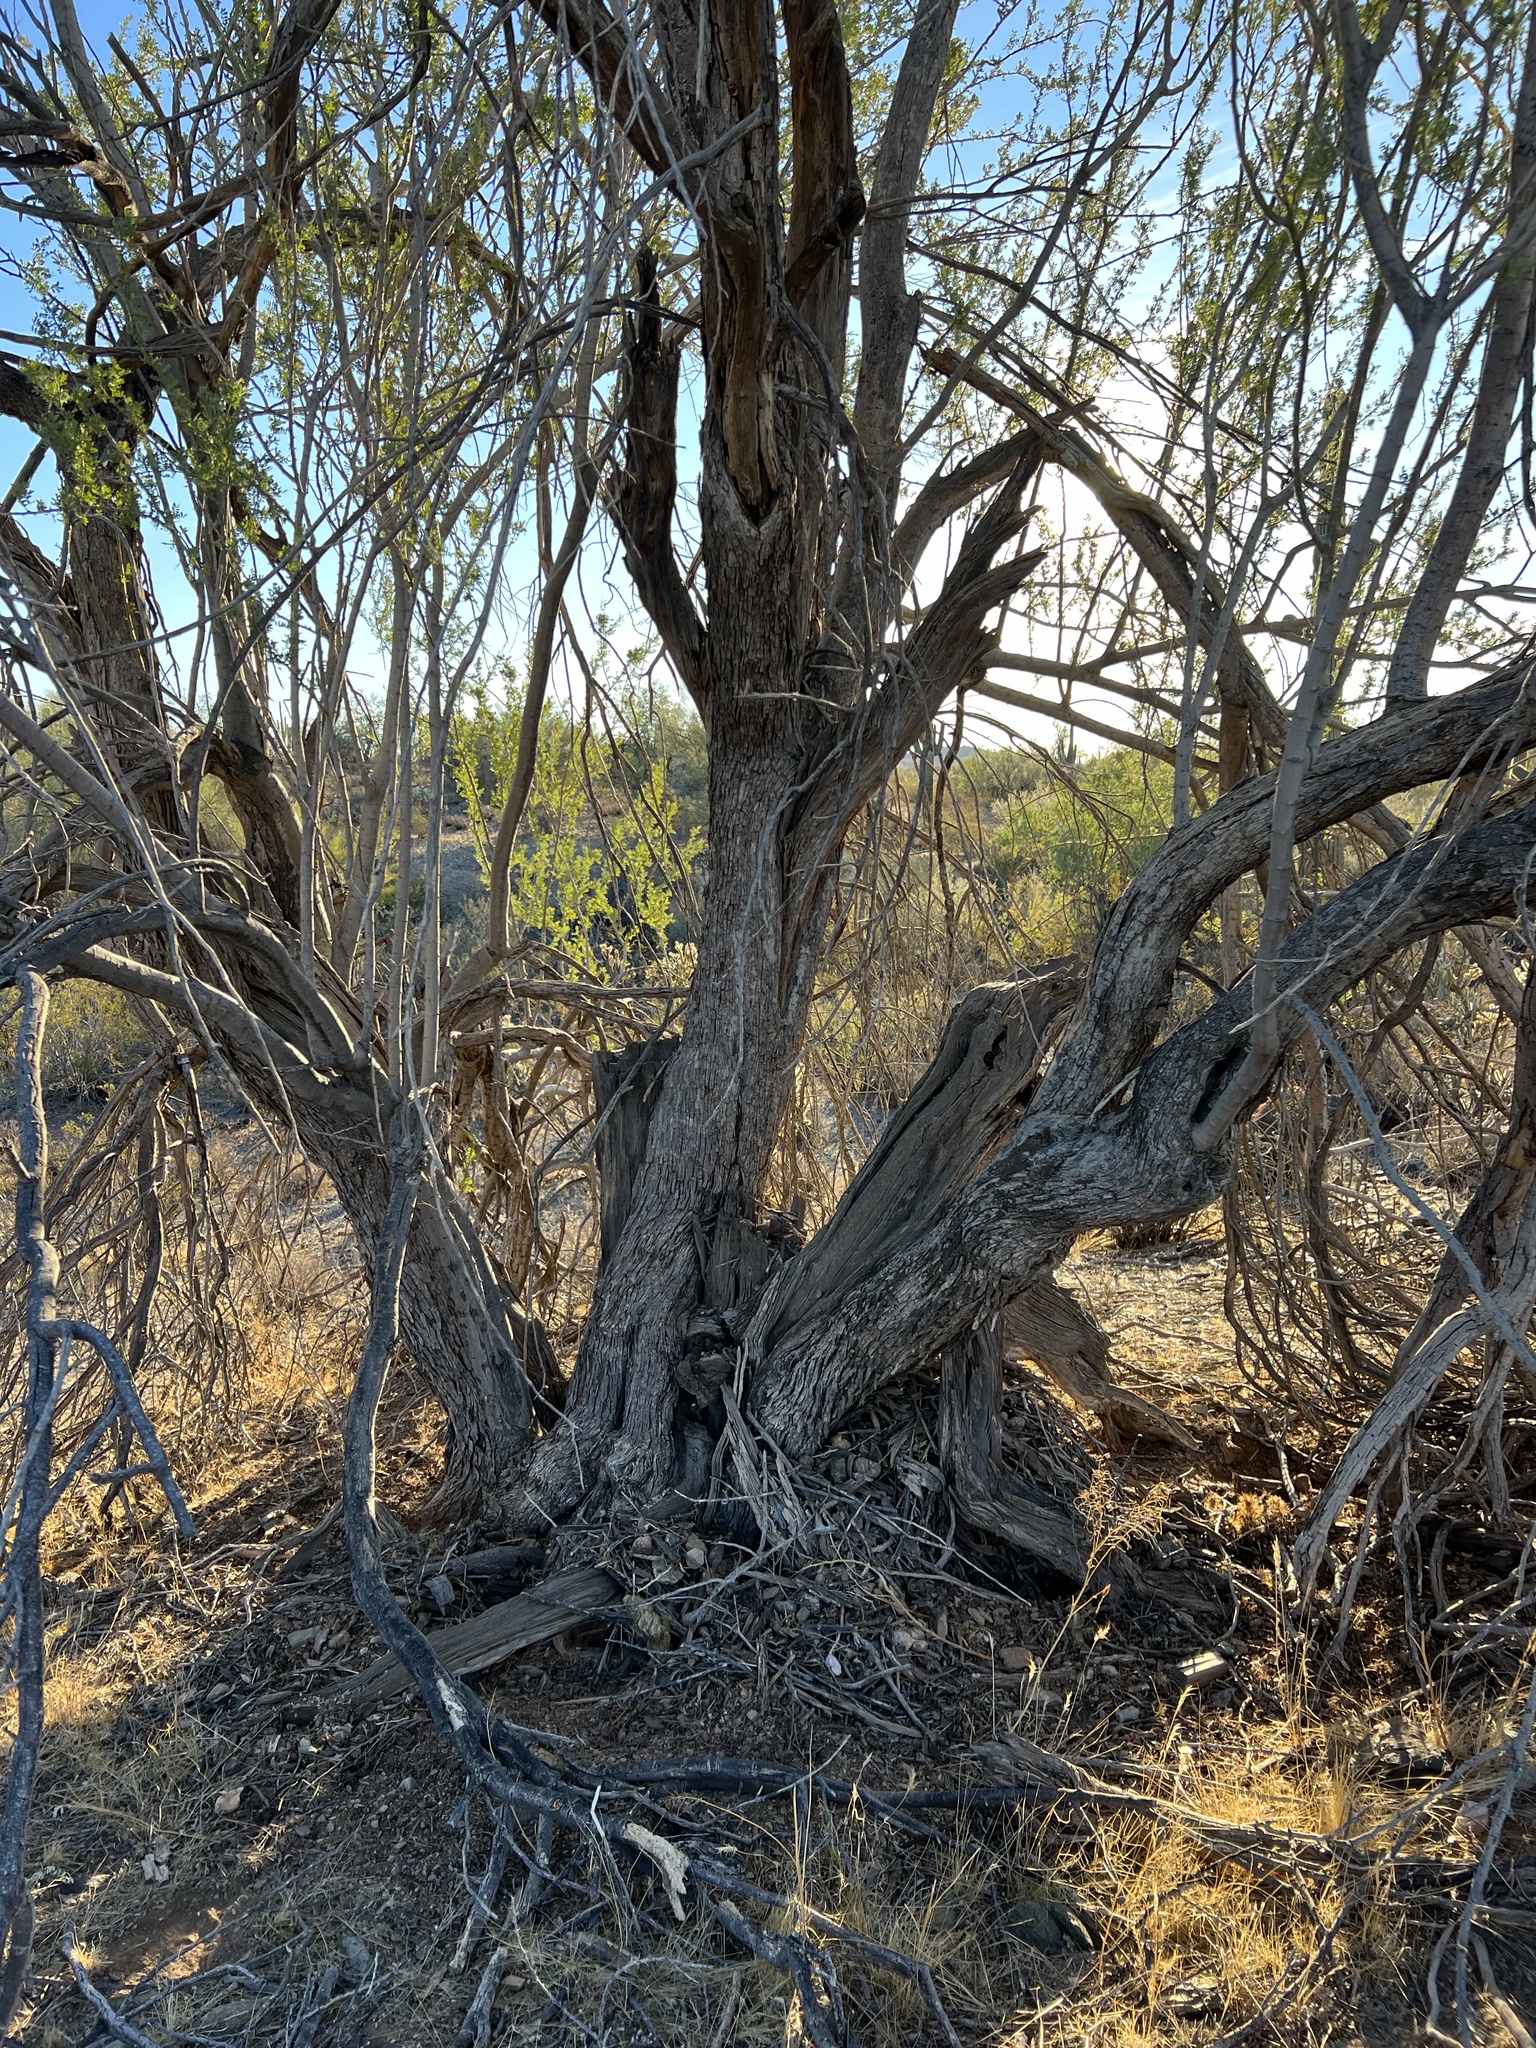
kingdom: Plantae
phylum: Tracheophyta
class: Magnoliopsida
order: Fabales
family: Fabaceae
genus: Olneya
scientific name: Olneya tesota
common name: Desert ironwood
